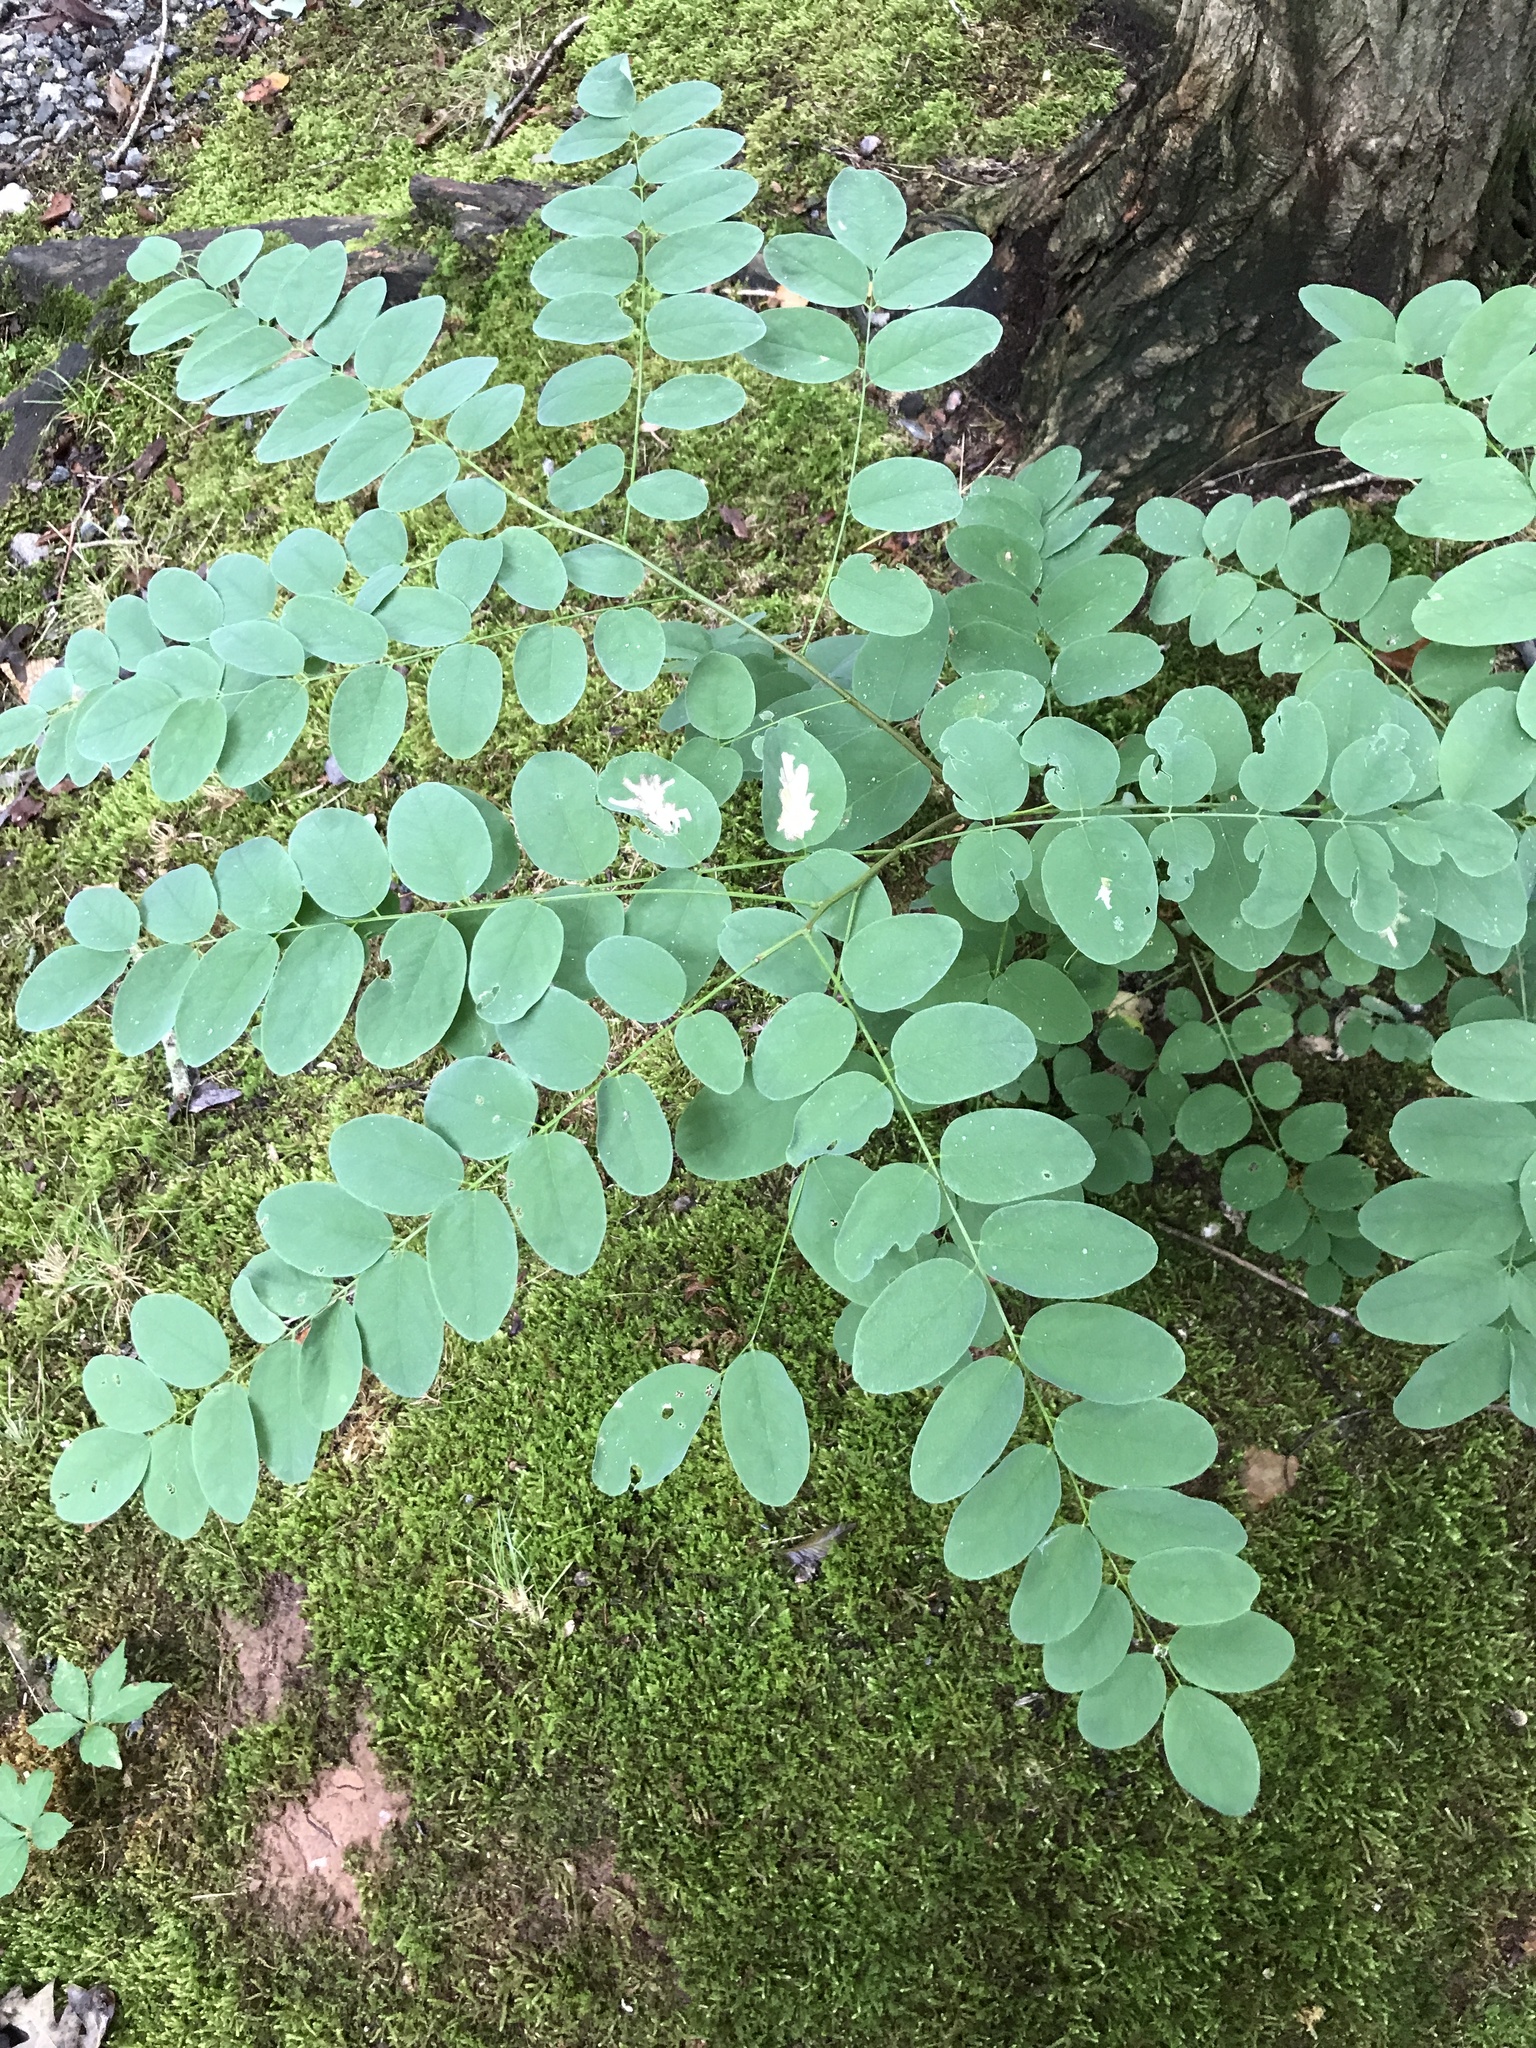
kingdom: Plantae
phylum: Tracheophyta
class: Magnoliopsida
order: Fabales
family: Fabaceae
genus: Robinia
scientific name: Robinia pseudoacacia
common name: Black locust
